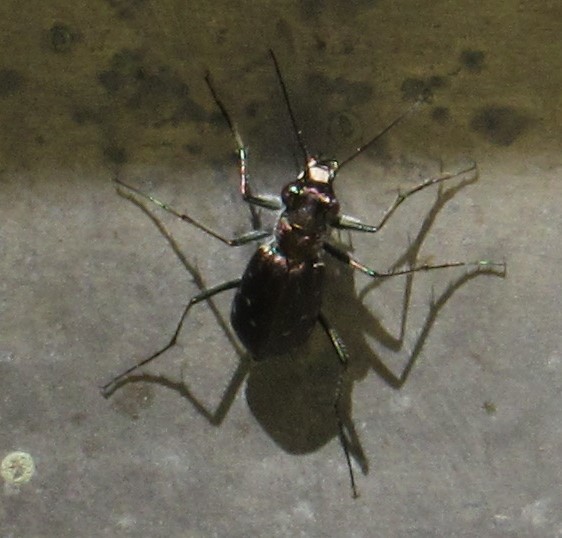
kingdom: Animalia
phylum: Arthropoda
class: Insecta
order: Coleoptera
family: Carabidae
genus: Cicindela
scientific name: Cicindela punctulata
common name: Punctured tiger beetle
